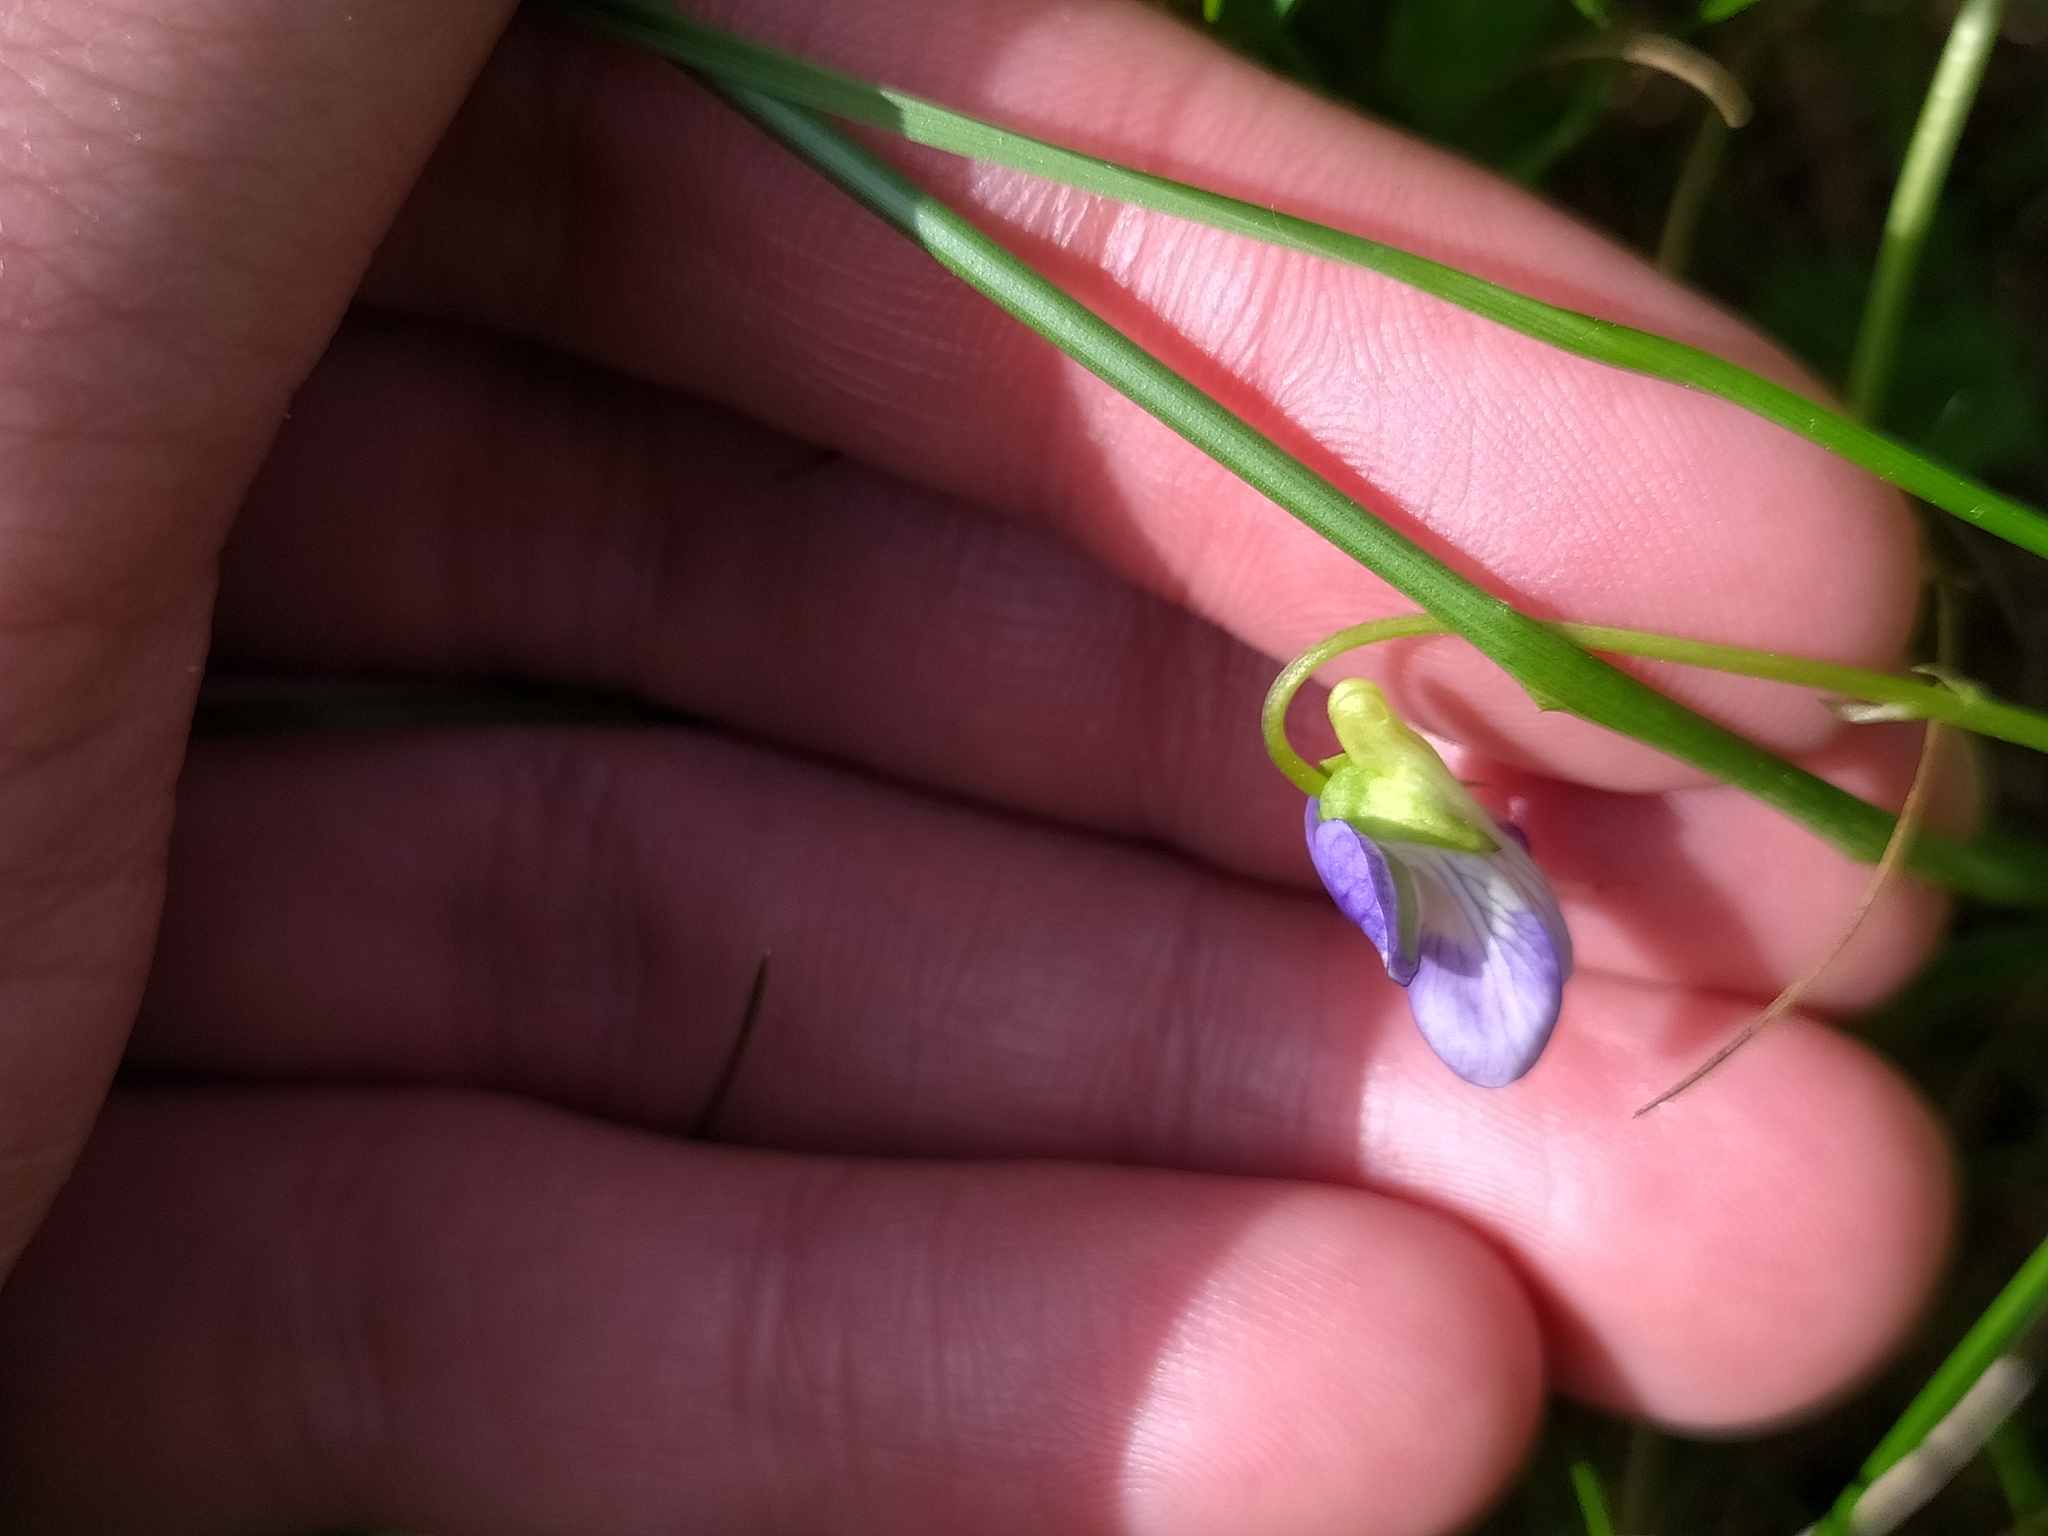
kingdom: Plantae
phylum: Tracheophyta
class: Magnoliopsida
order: Malpighiales
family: Violaceae
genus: Viola
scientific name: Viola canina
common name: Heath dog-violet
